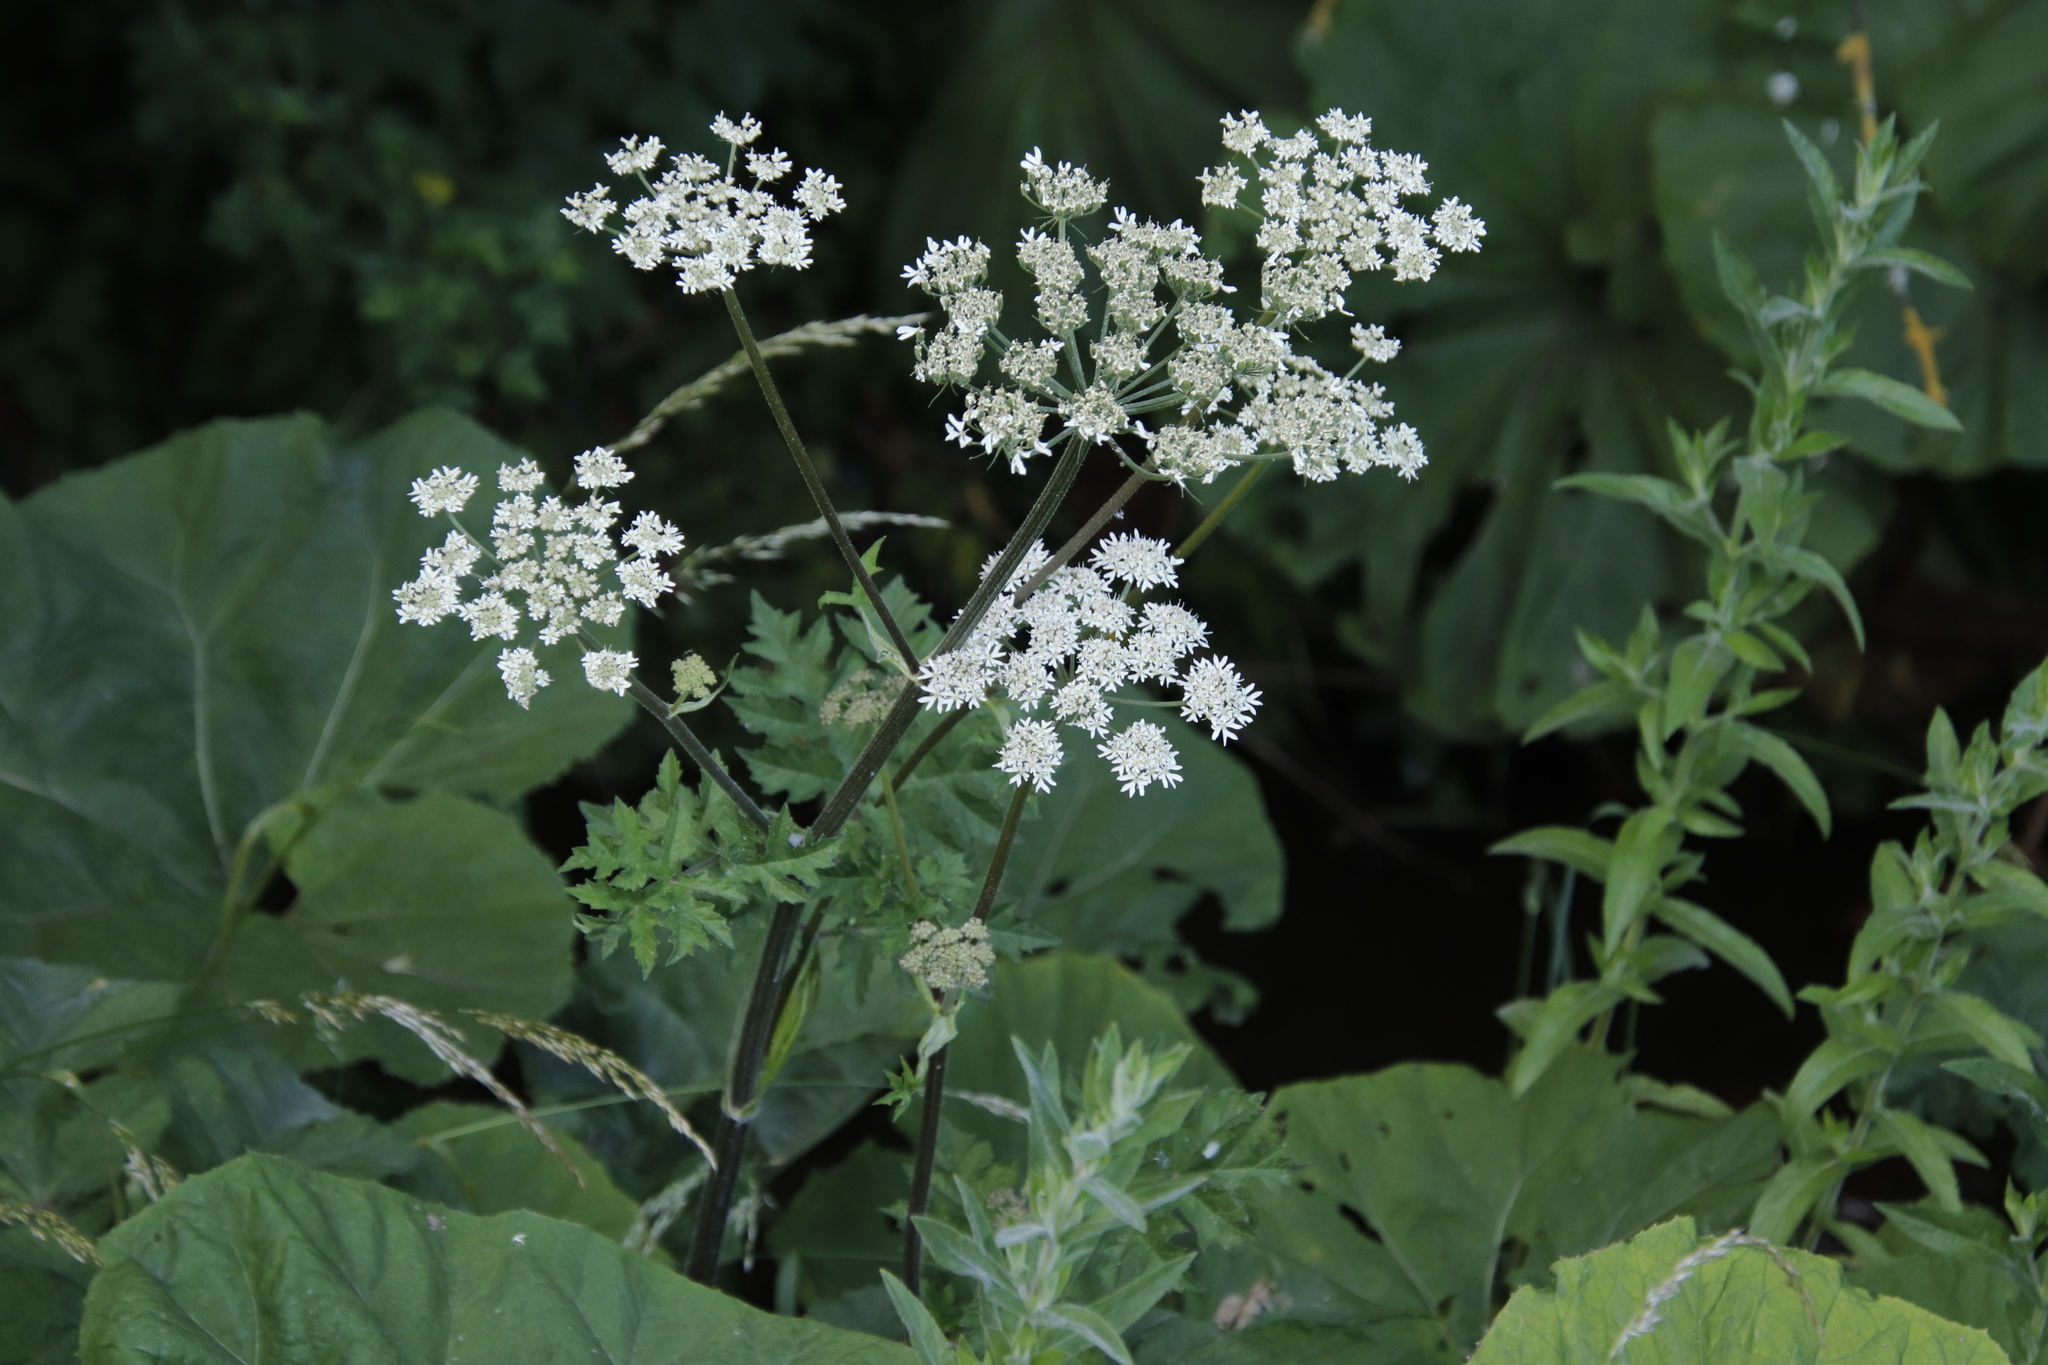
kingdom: Plantae
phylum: Tracheophyta
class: Magnoliopsida
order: Apiales
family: Apiaceae
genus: Heracleum
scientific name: Heracleum sphondylium
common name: Hogweed
